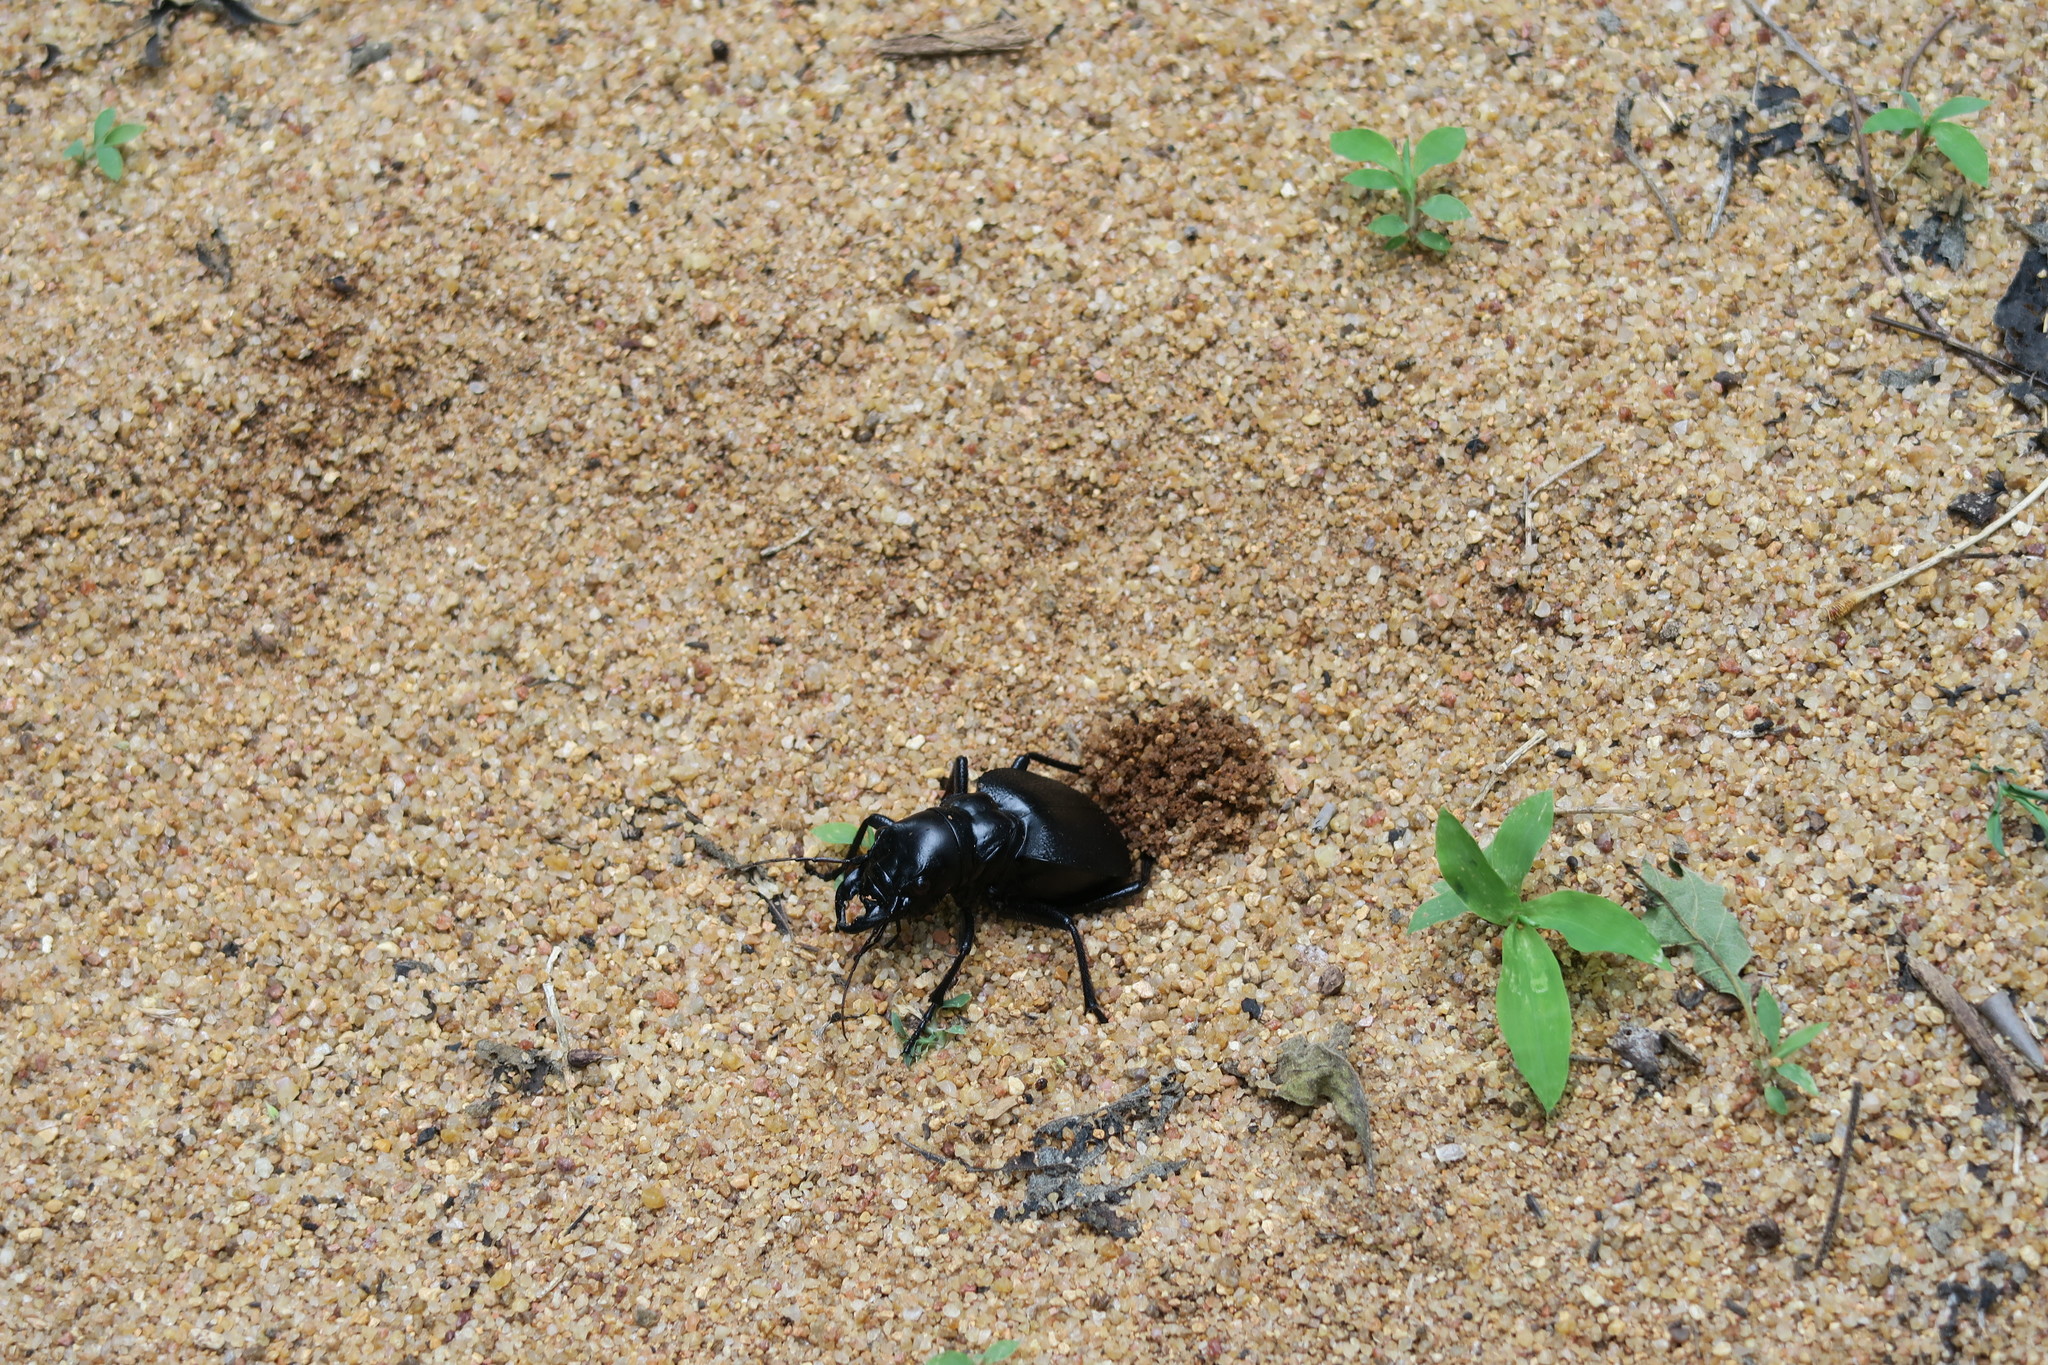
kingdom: Animalia
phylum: Arthropoda
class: Insecta
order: Coleoptera
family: Carabidae
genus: Manticora
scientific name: Manticora
